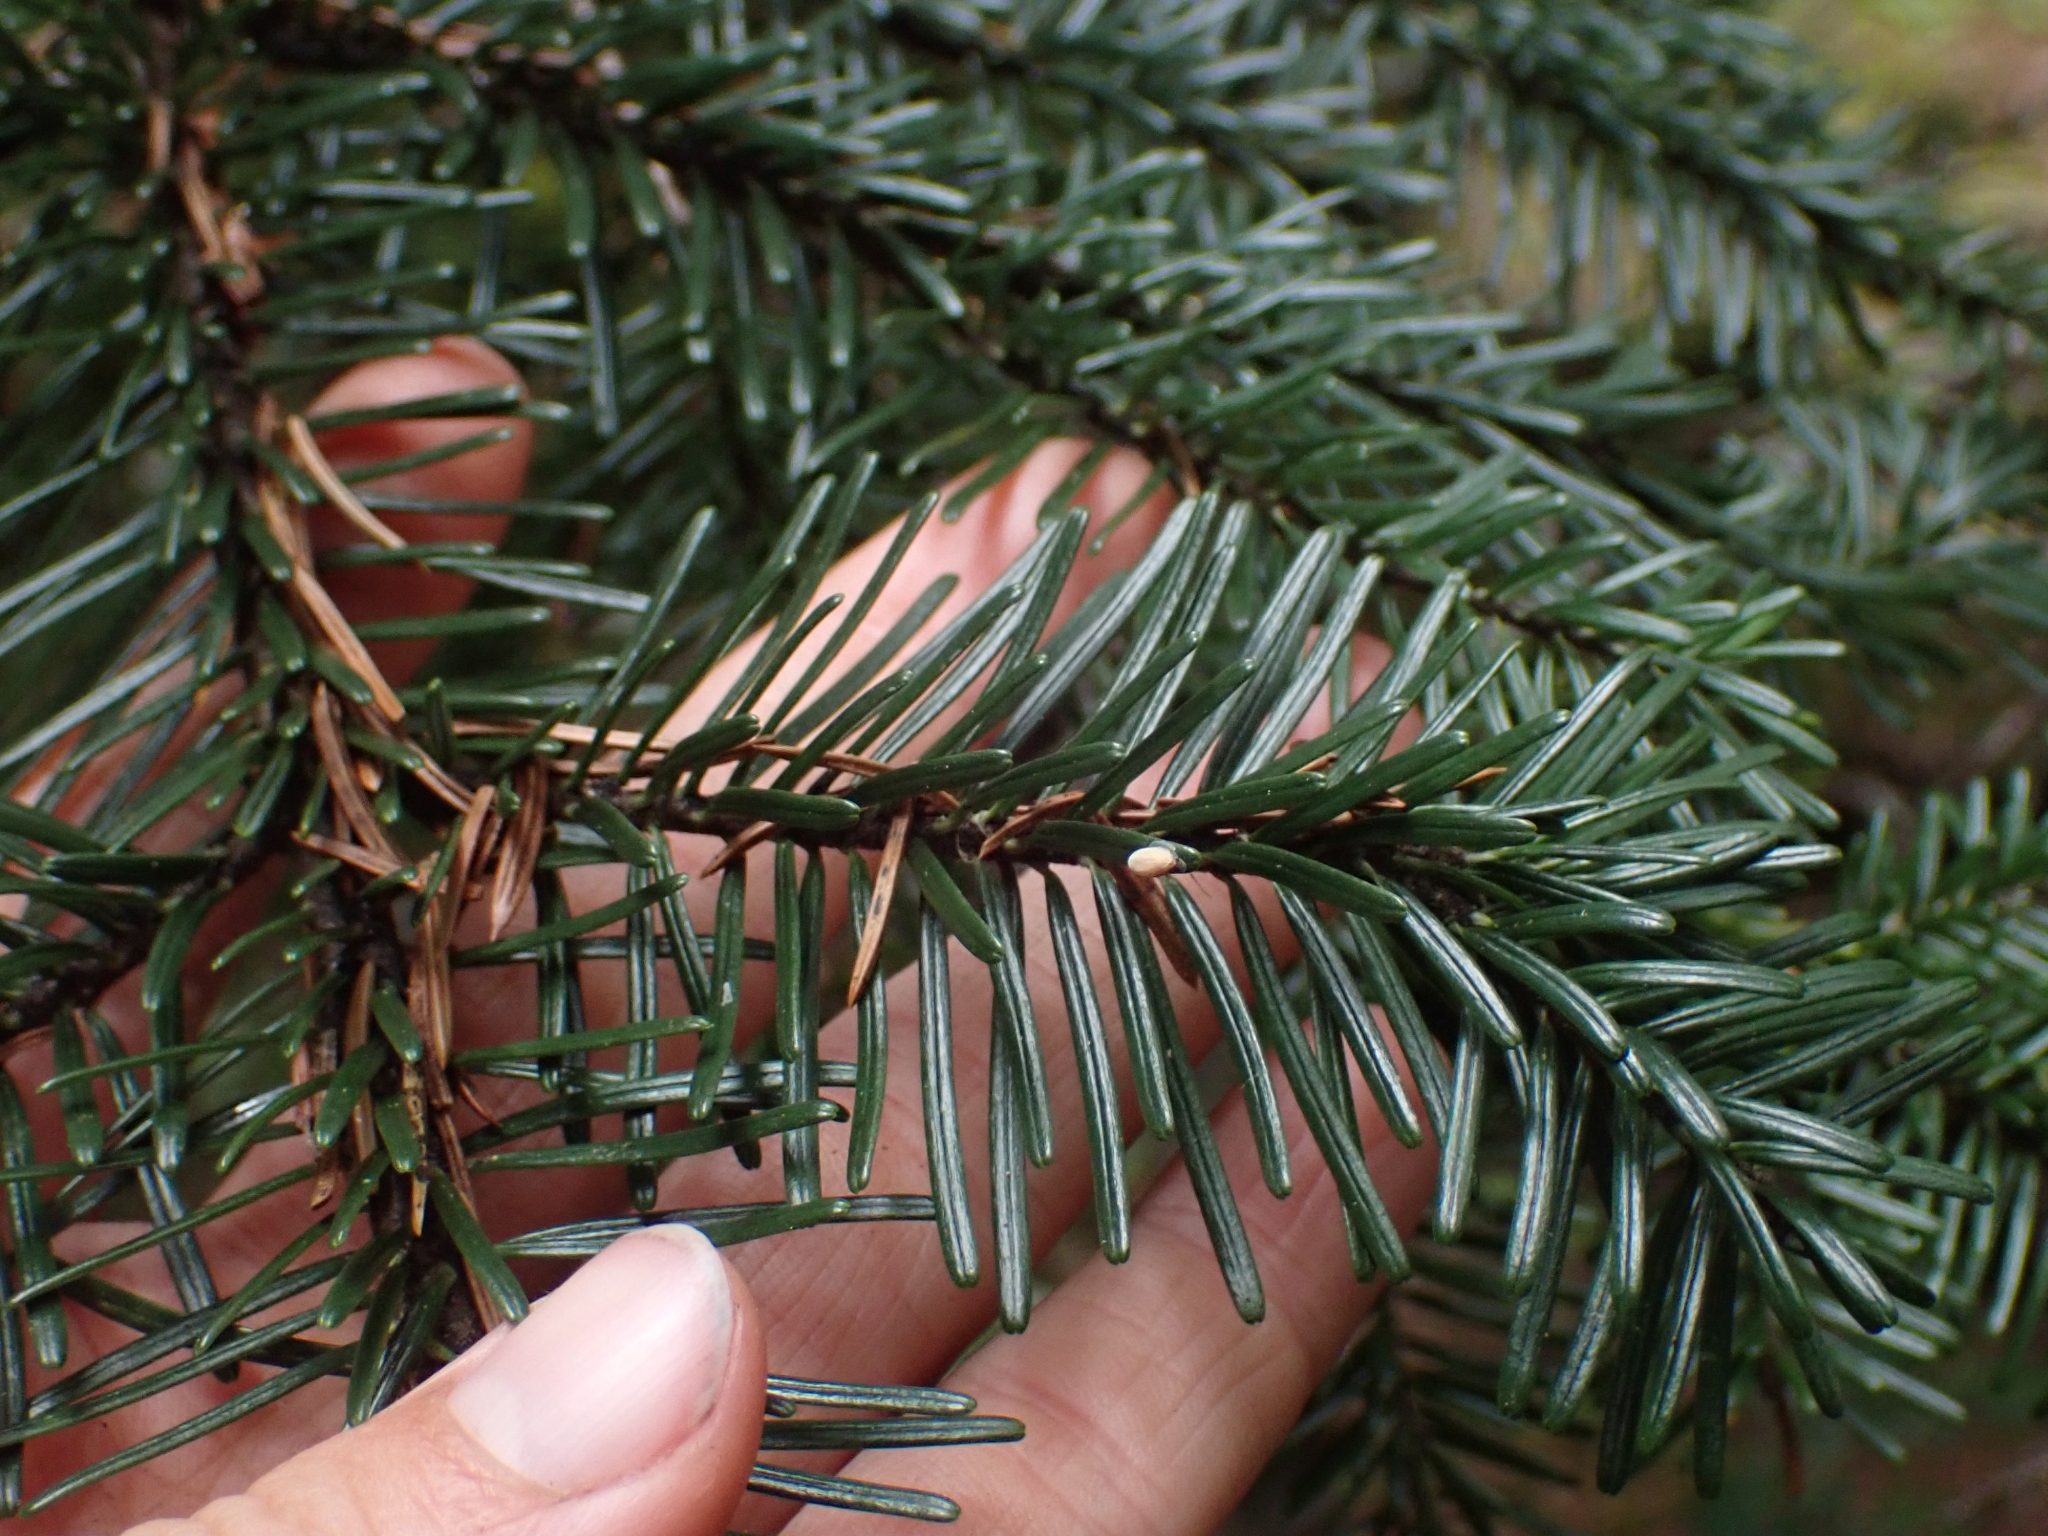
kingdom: Plantae
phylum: Tracheophyta
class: Pinopsida
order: Pinales
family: Pinaceae
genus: Abies
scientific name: Abies amabilis
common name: Pacific silver fir
